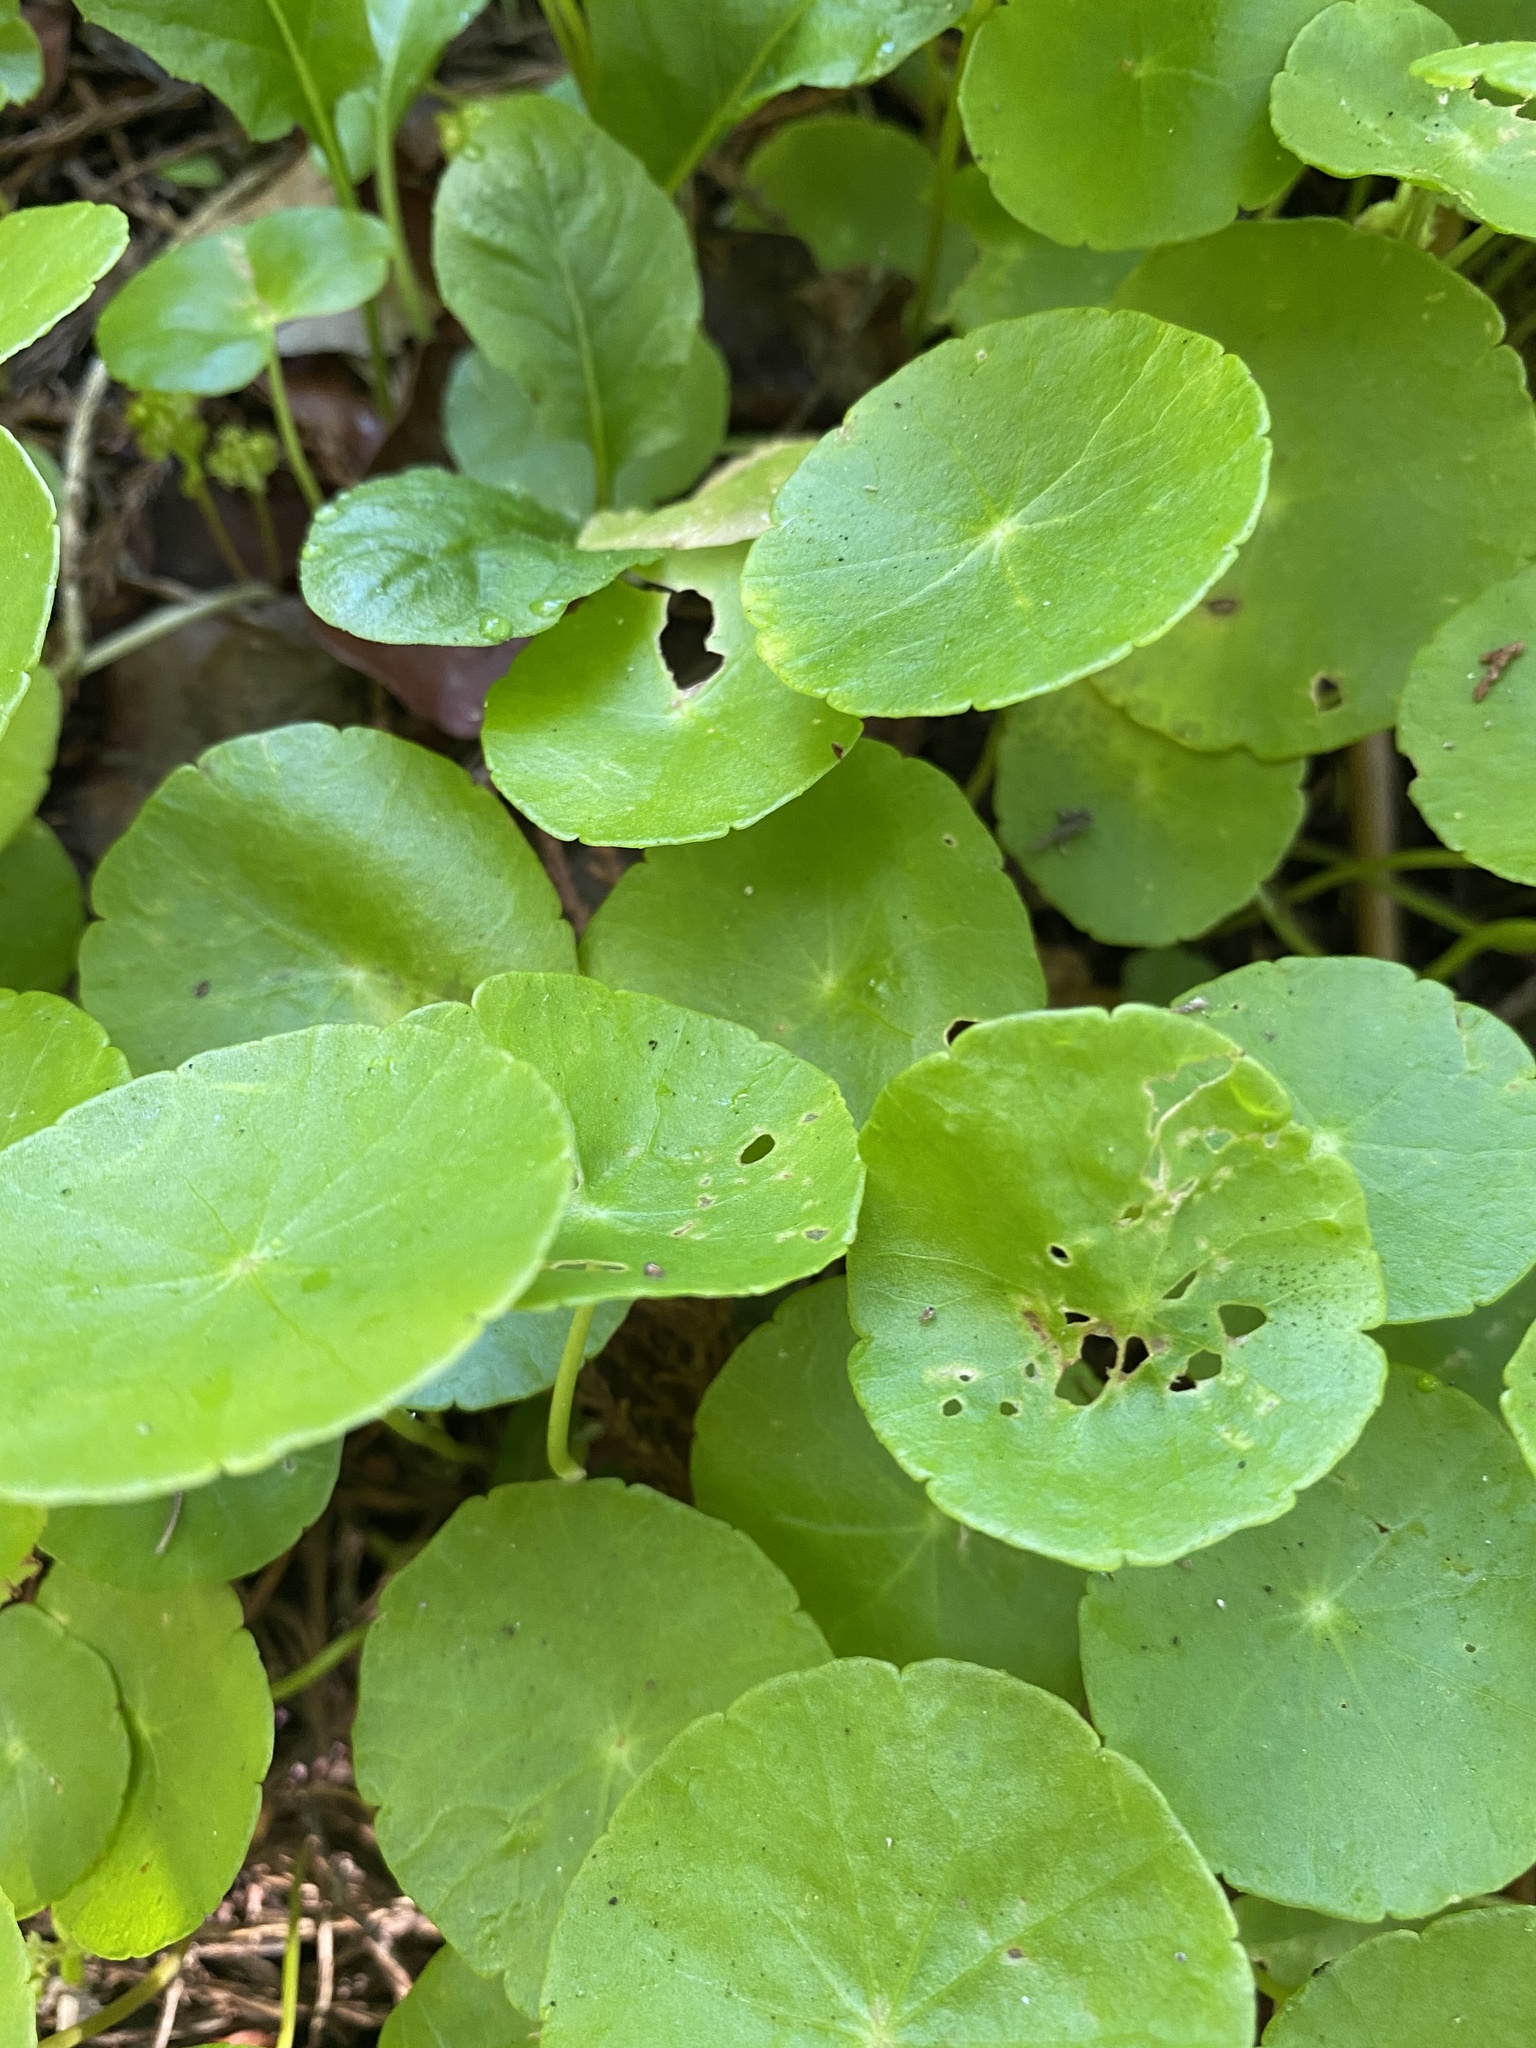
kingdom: Plantae
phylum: Tracheophyta
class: Magnoliopsida
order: Apiales
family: Araliaceae
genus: Hydrocotyle
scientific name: Hydrocotyle verticillata
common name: Whorled marshpennywort
